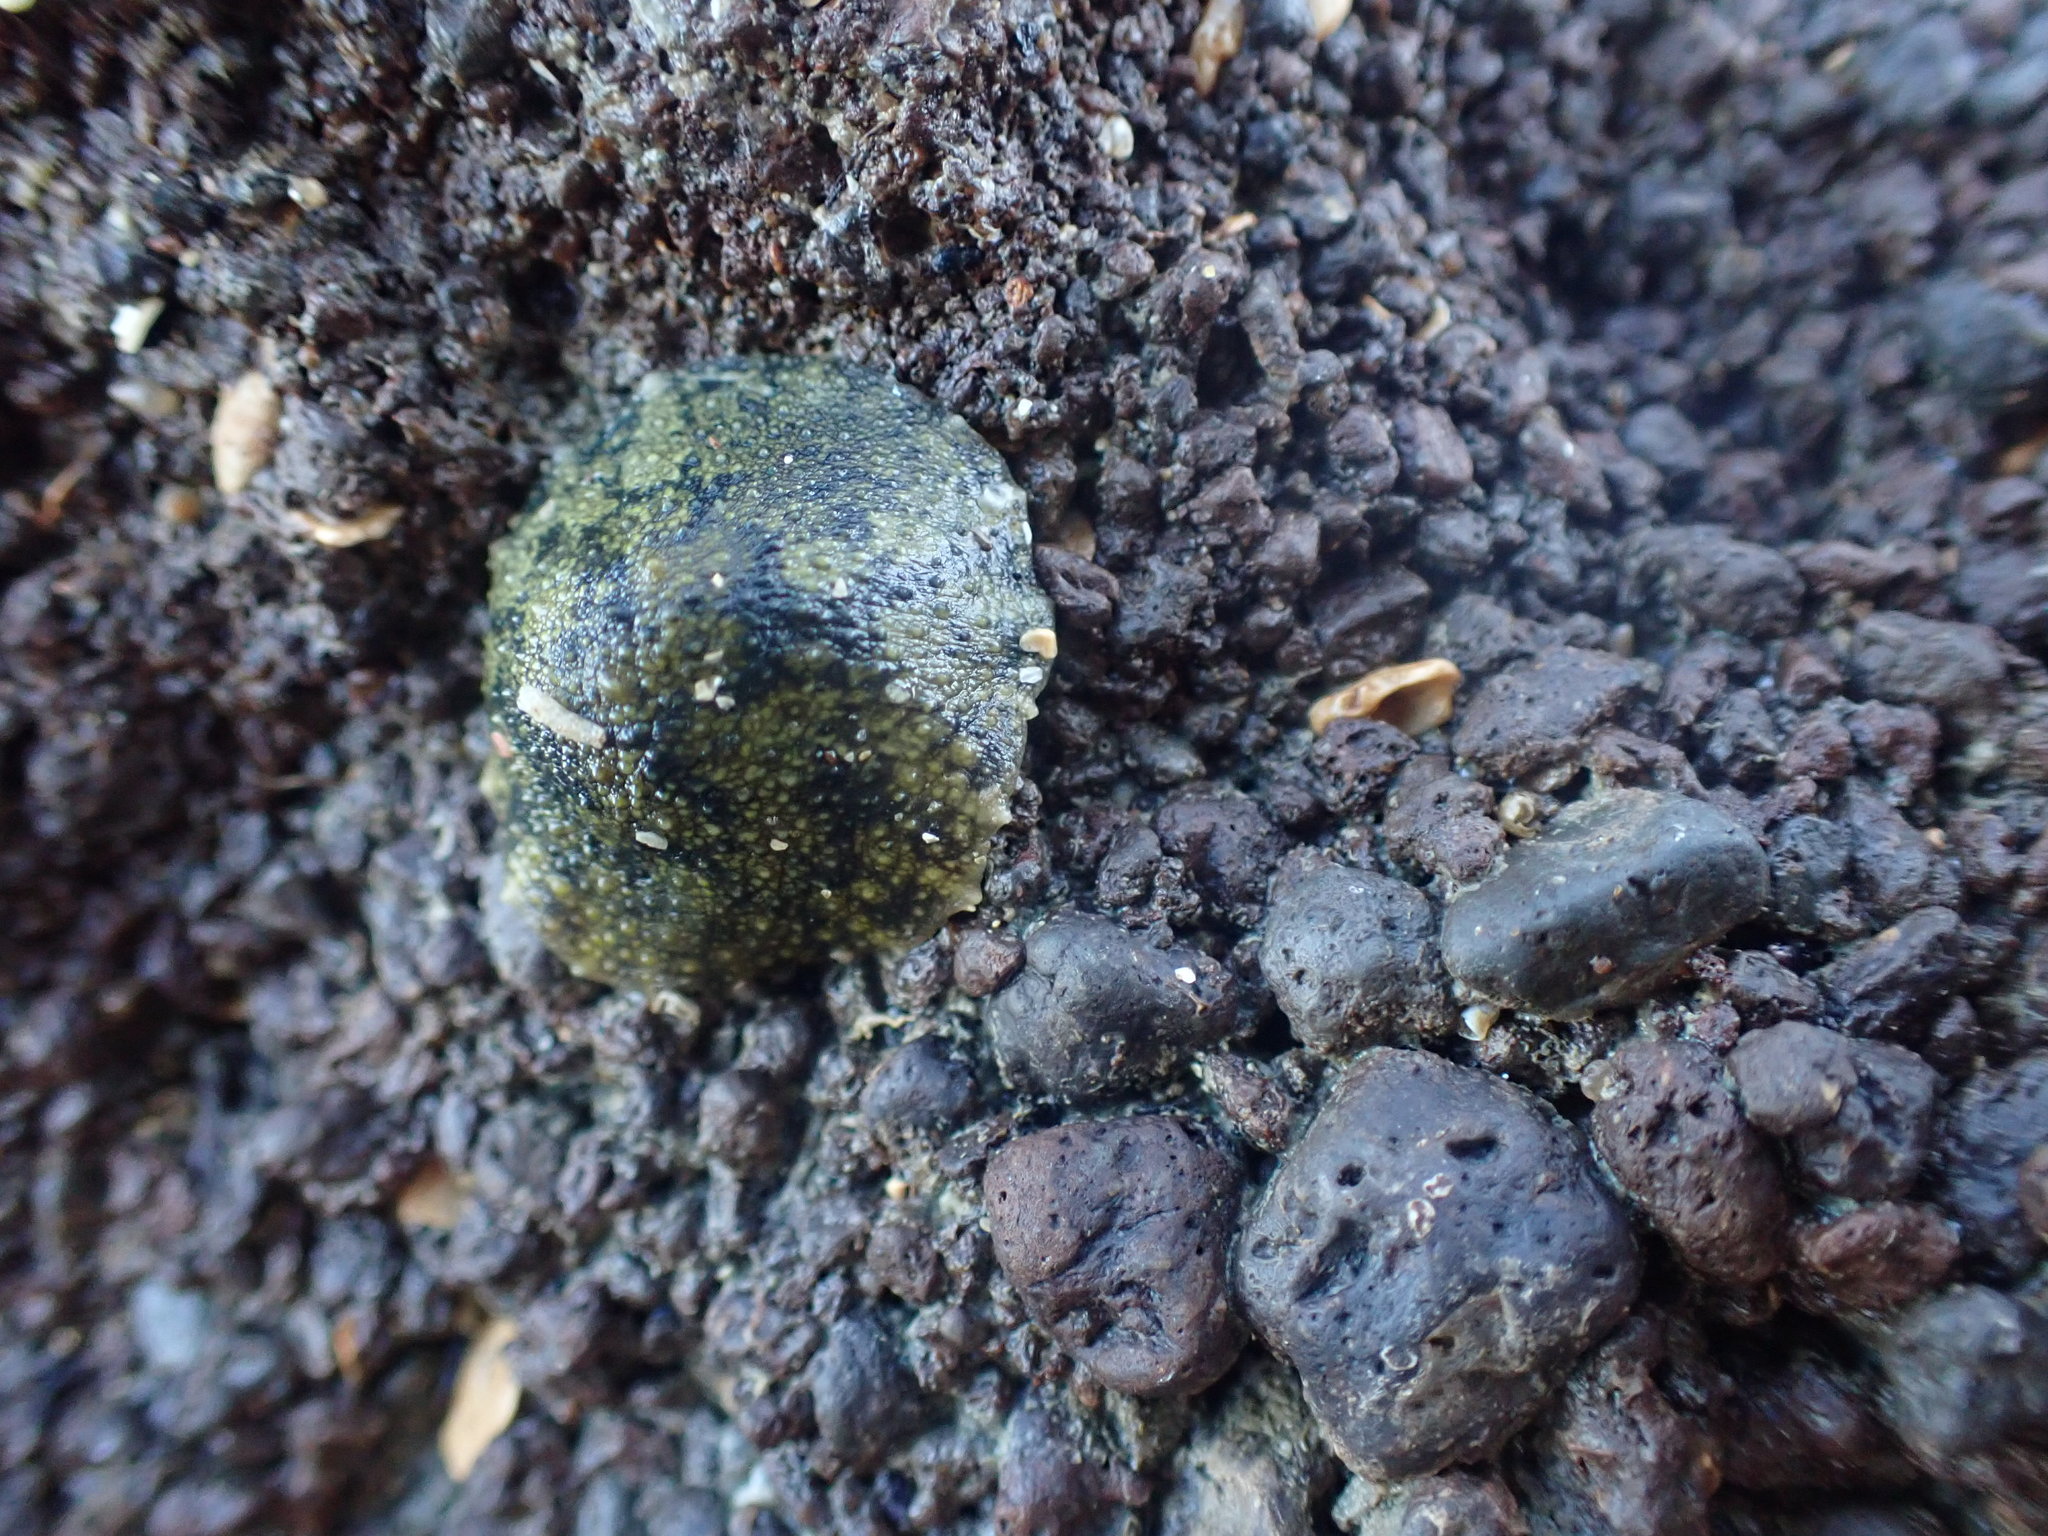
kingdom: Animalia
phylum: Mollusca
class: Gastropoda
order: Systellommatophora
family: Onchidiidae
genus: Onchidella
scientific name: Onchidella nigricans
